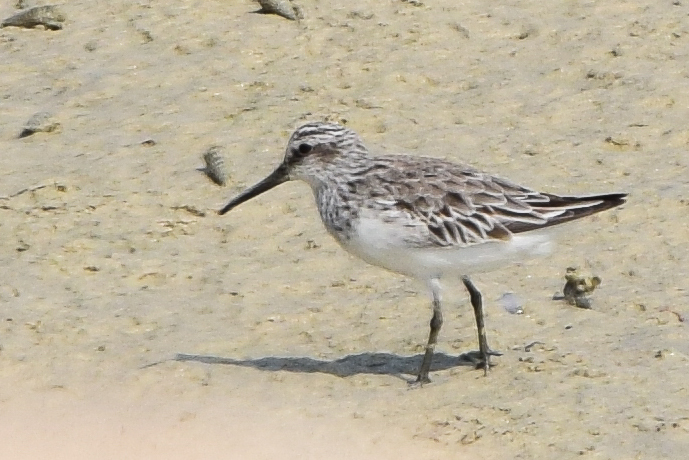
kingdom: Animalia
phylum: Chordata
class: Aves
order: Charadriiformes
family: Scolopacidae
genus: Calidris
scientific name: Calidris falcinellus
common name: Broad-billed sandpiper
